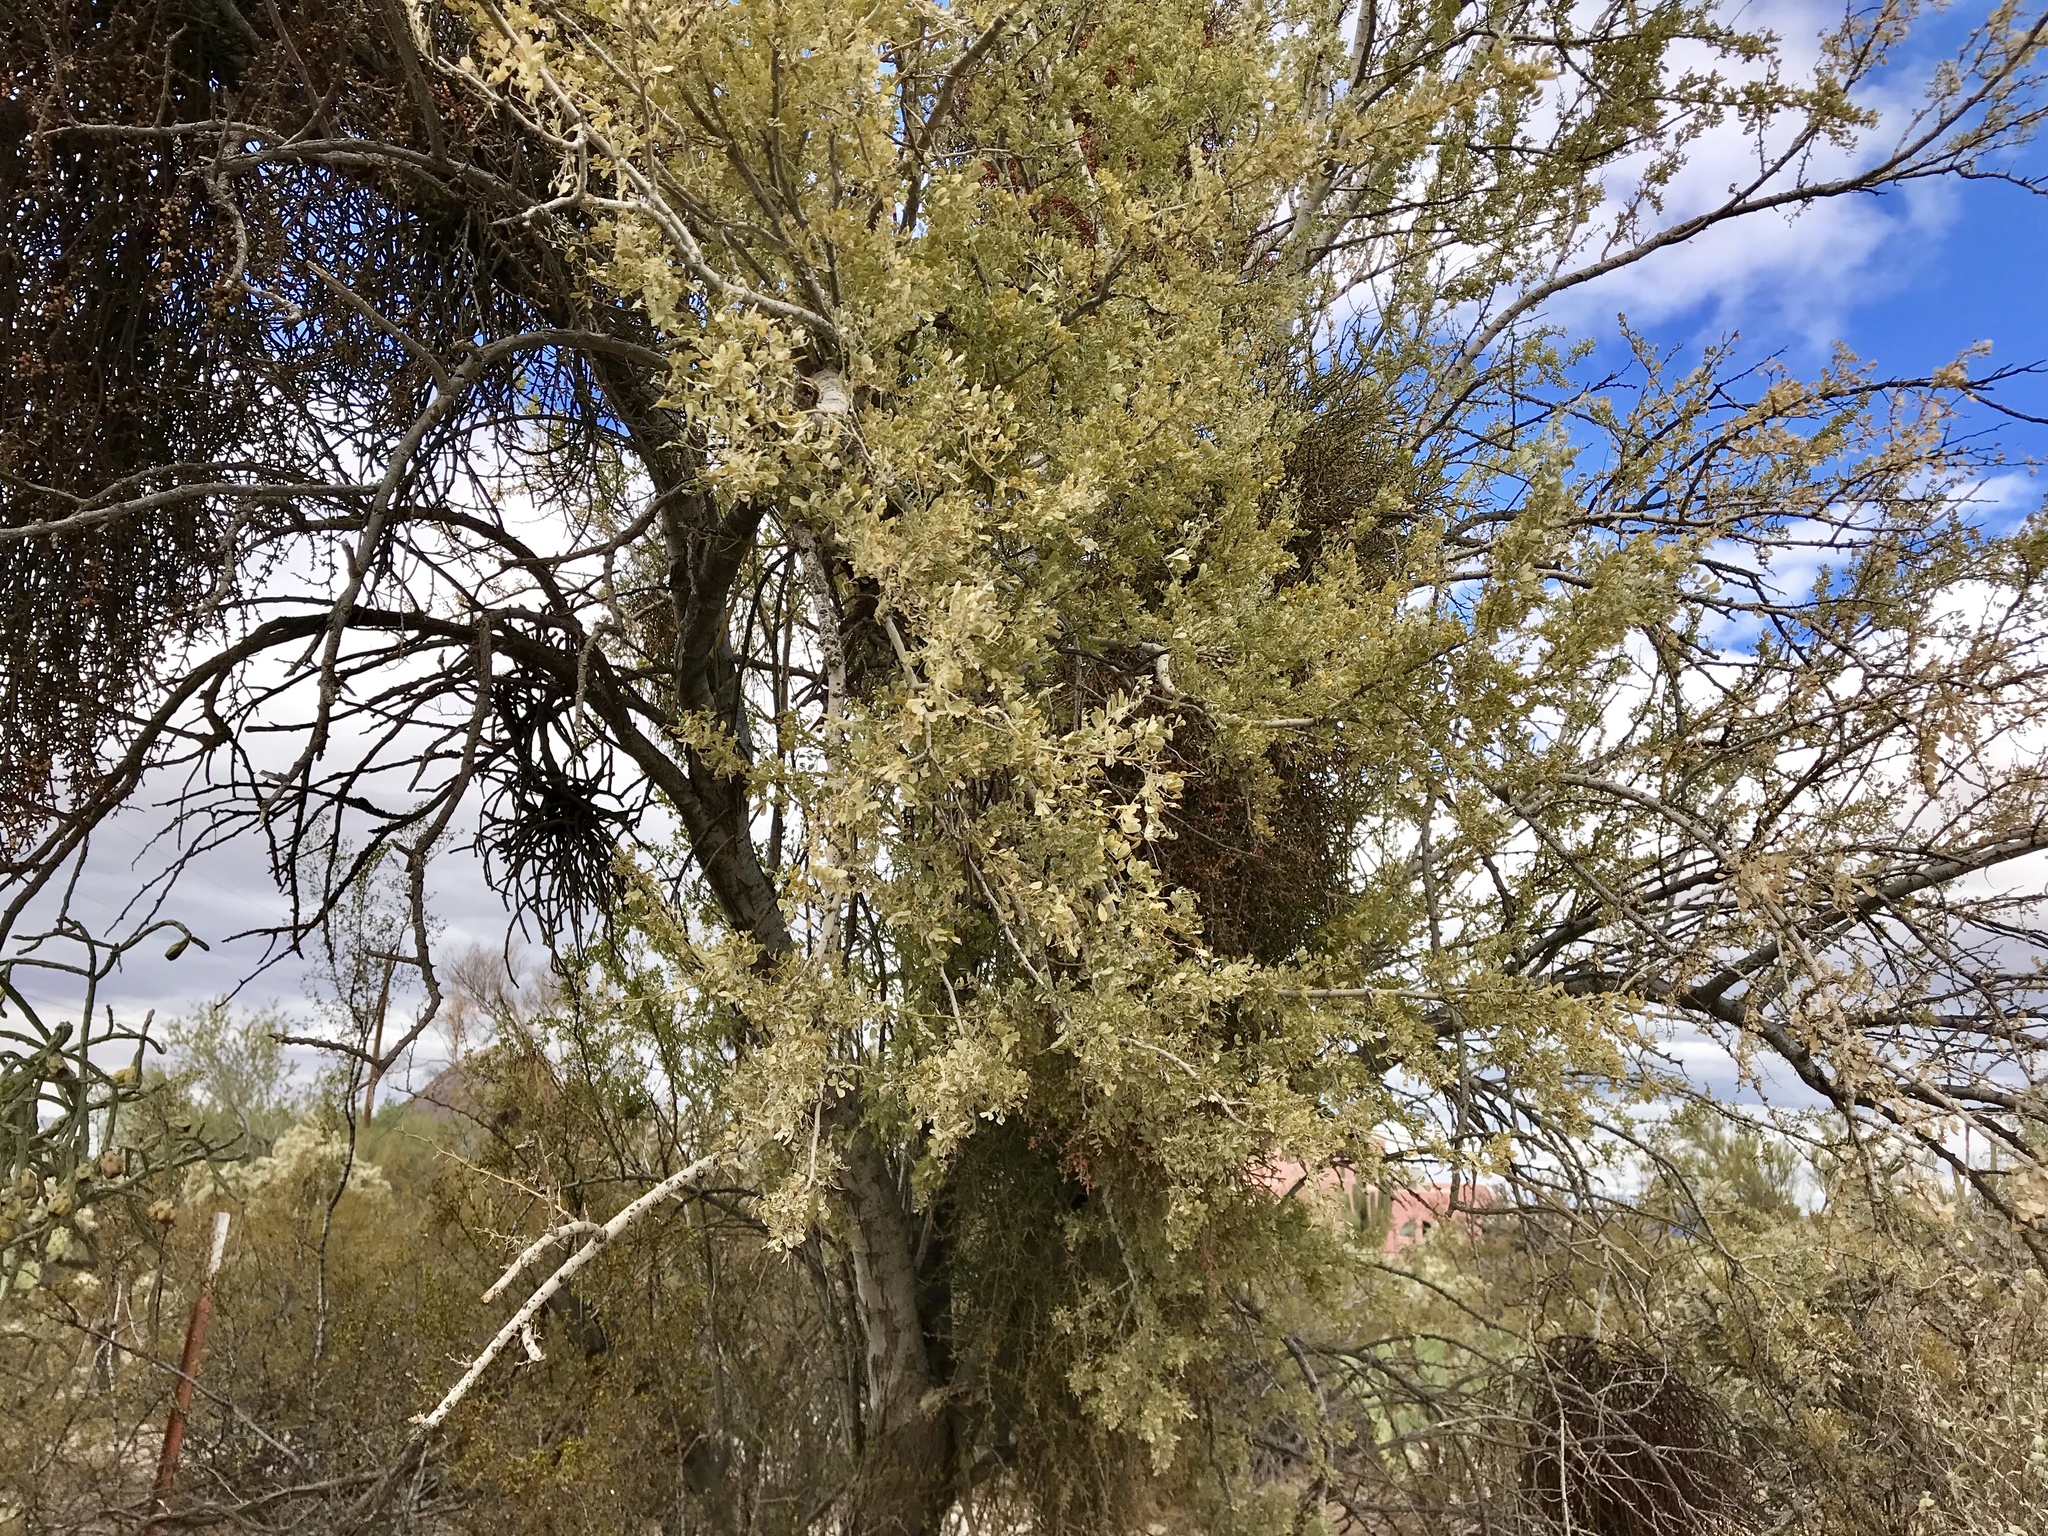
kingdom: Plantae
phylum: Tracheophyta
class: Magnoliopsida
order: Fabales
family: Fabaceae
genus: Olneya
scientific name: Olneya tesota
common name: Desert ironwood
